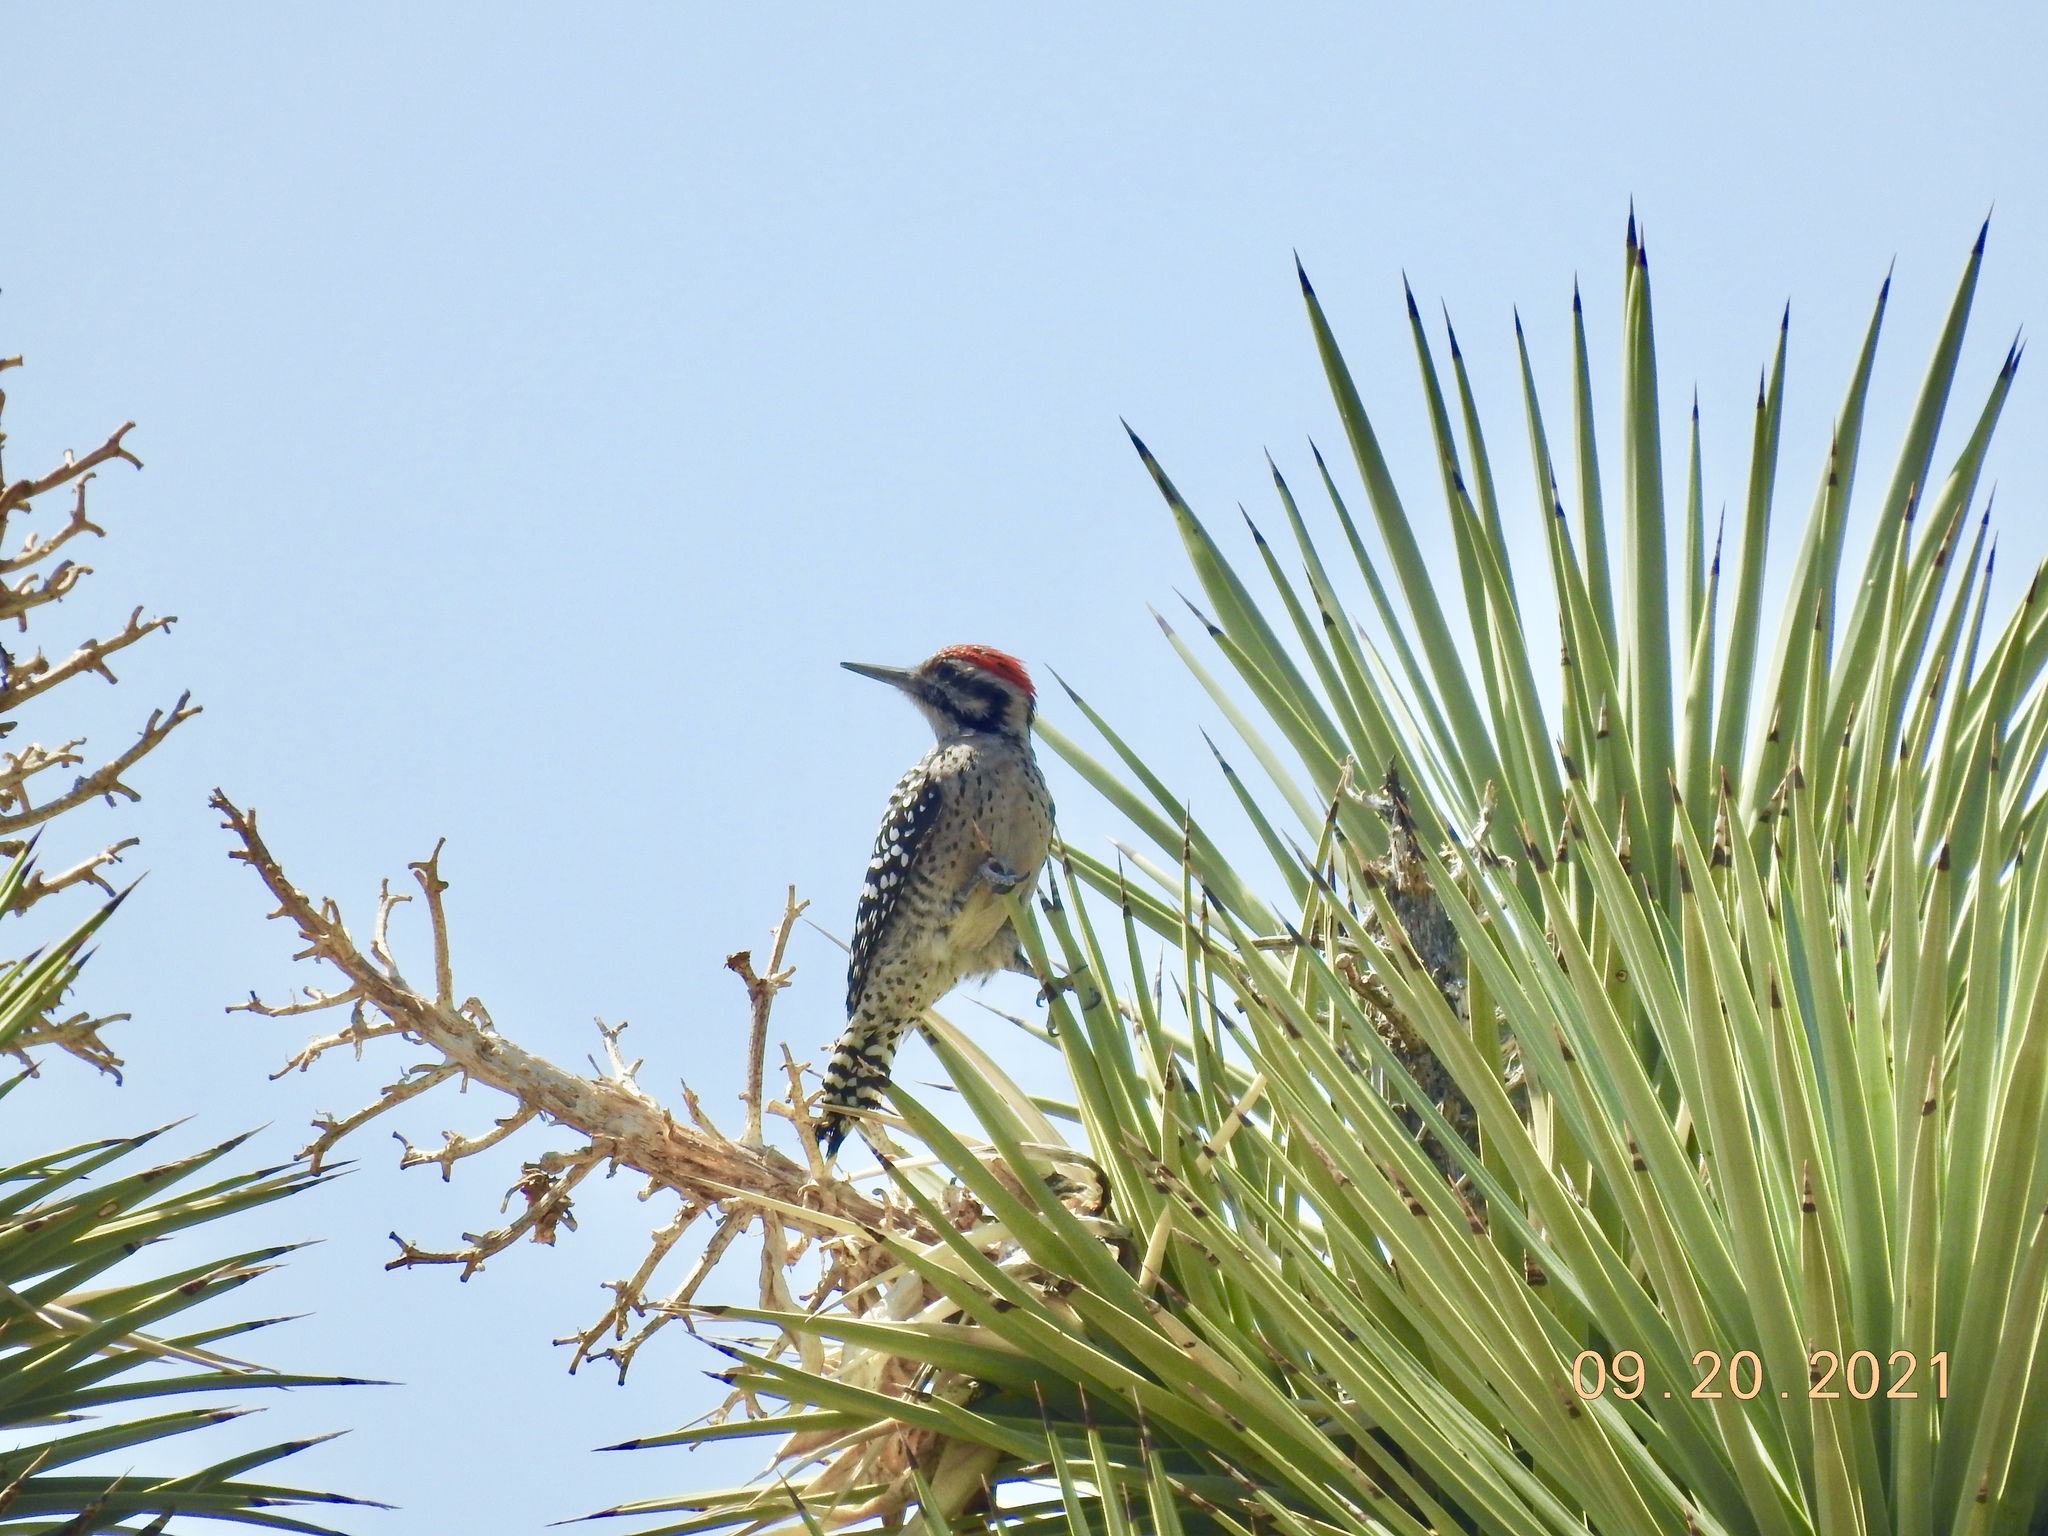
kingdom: Animalia
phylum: Chordata
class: Aves
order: Piciformes
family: Picidae
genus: Dryobates
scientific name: Dryobates scalaris
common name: Ladder-backed woodpecker
